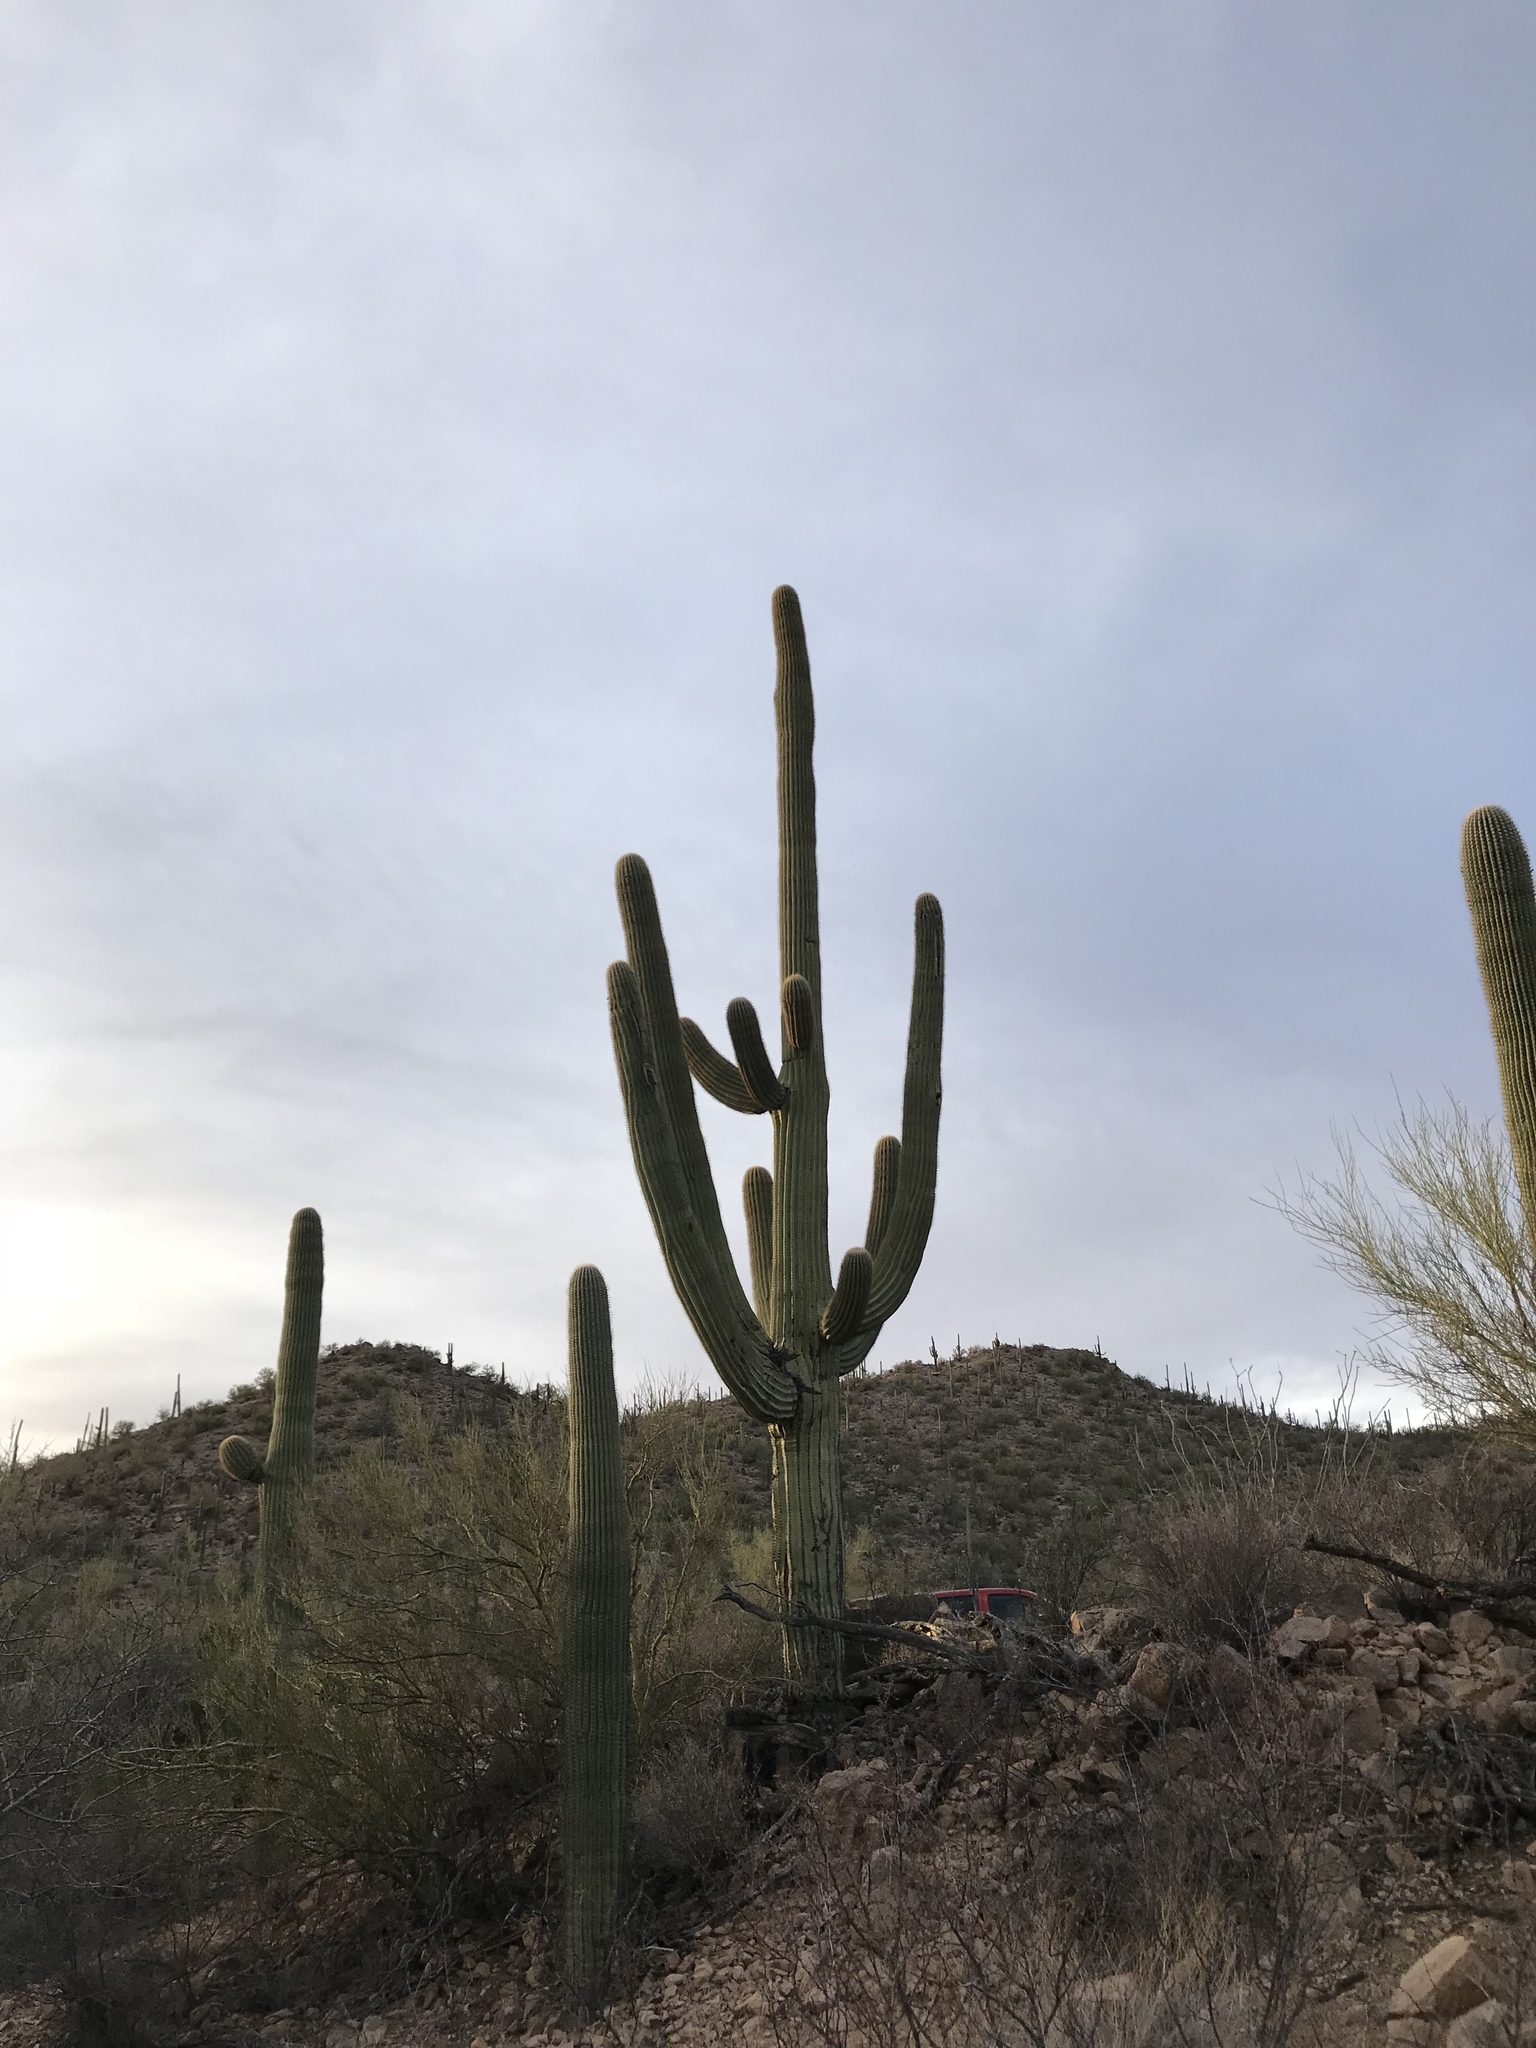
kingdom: Plantae
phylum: Tracheophyta
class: Magnoliopsida
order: Caryophyllales
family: Cactaceae
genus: Carnegiea
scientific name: Carnegiea gigantea
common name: Saguaro
